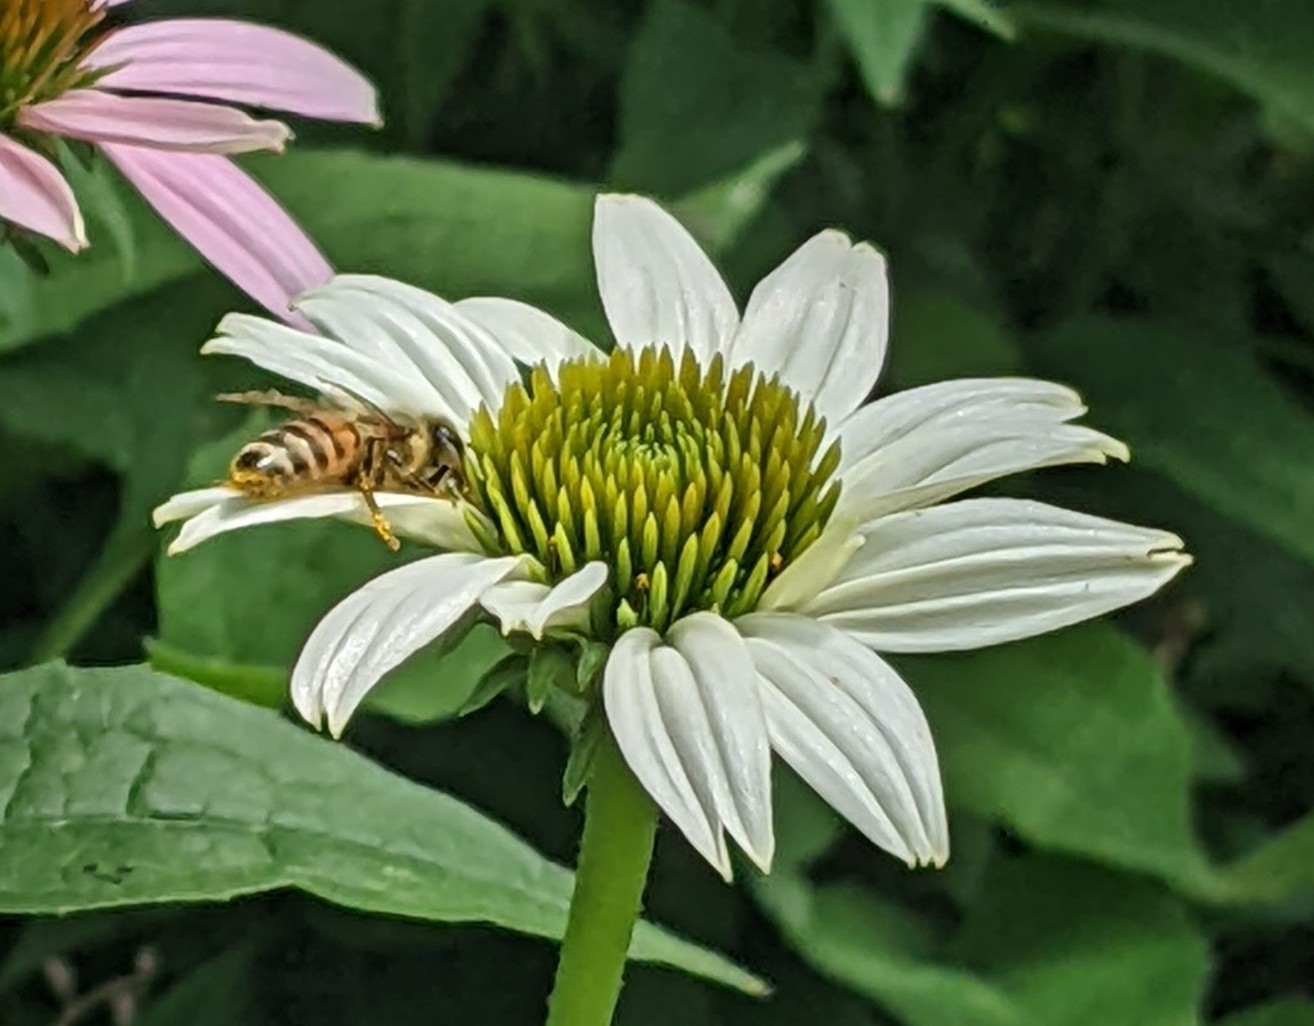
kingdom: Animalia
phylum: Arthropoda
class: Insecta
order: Hymenoptera
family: Apidae
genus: Apis
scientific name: Apis mellifera
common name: Honey bee
